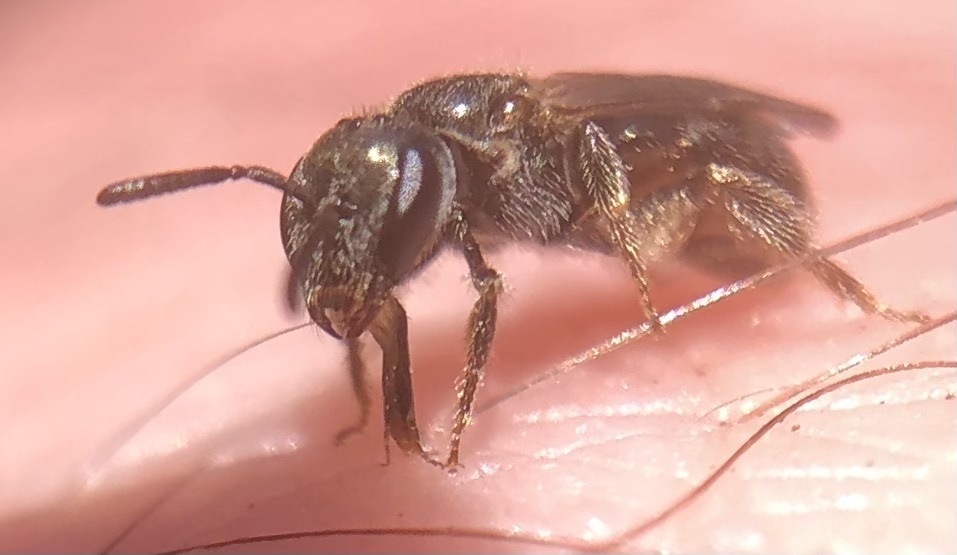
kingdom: Animalia
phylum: Arthropoda
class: Insecta
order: Hymenoptera
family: Halictidae
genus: Lasioglossum
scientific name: Lasioglossum imitatum
